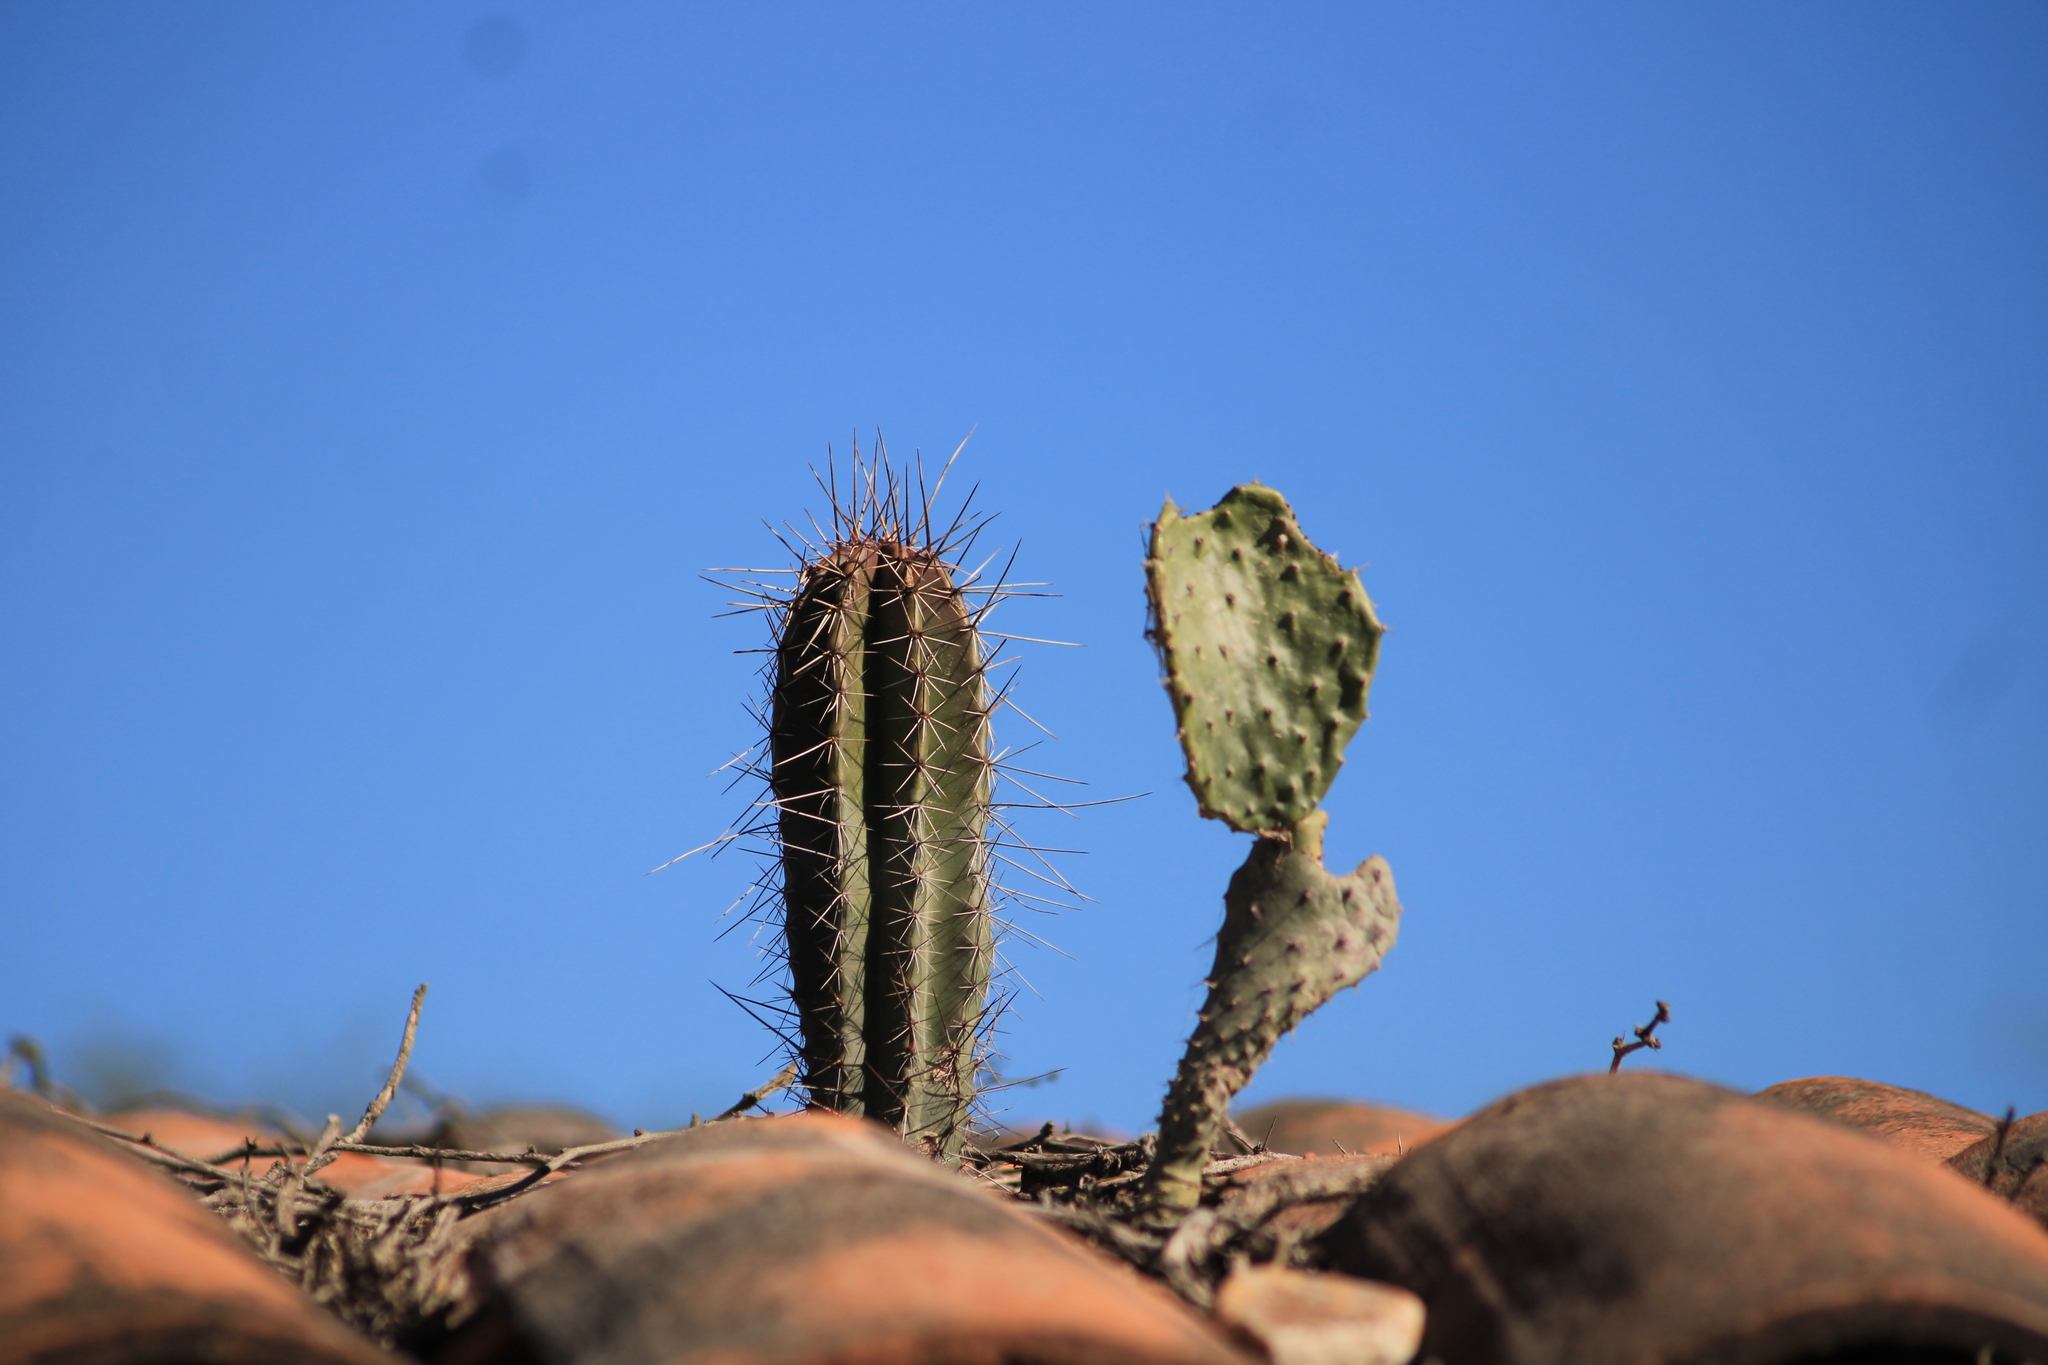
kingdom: Plantae
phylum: Tracheophyta
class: Magnoliopsida
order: Caryophyllales
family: Cactaceae
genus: Stenocereus
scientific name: Stenocereus queretaroensis
